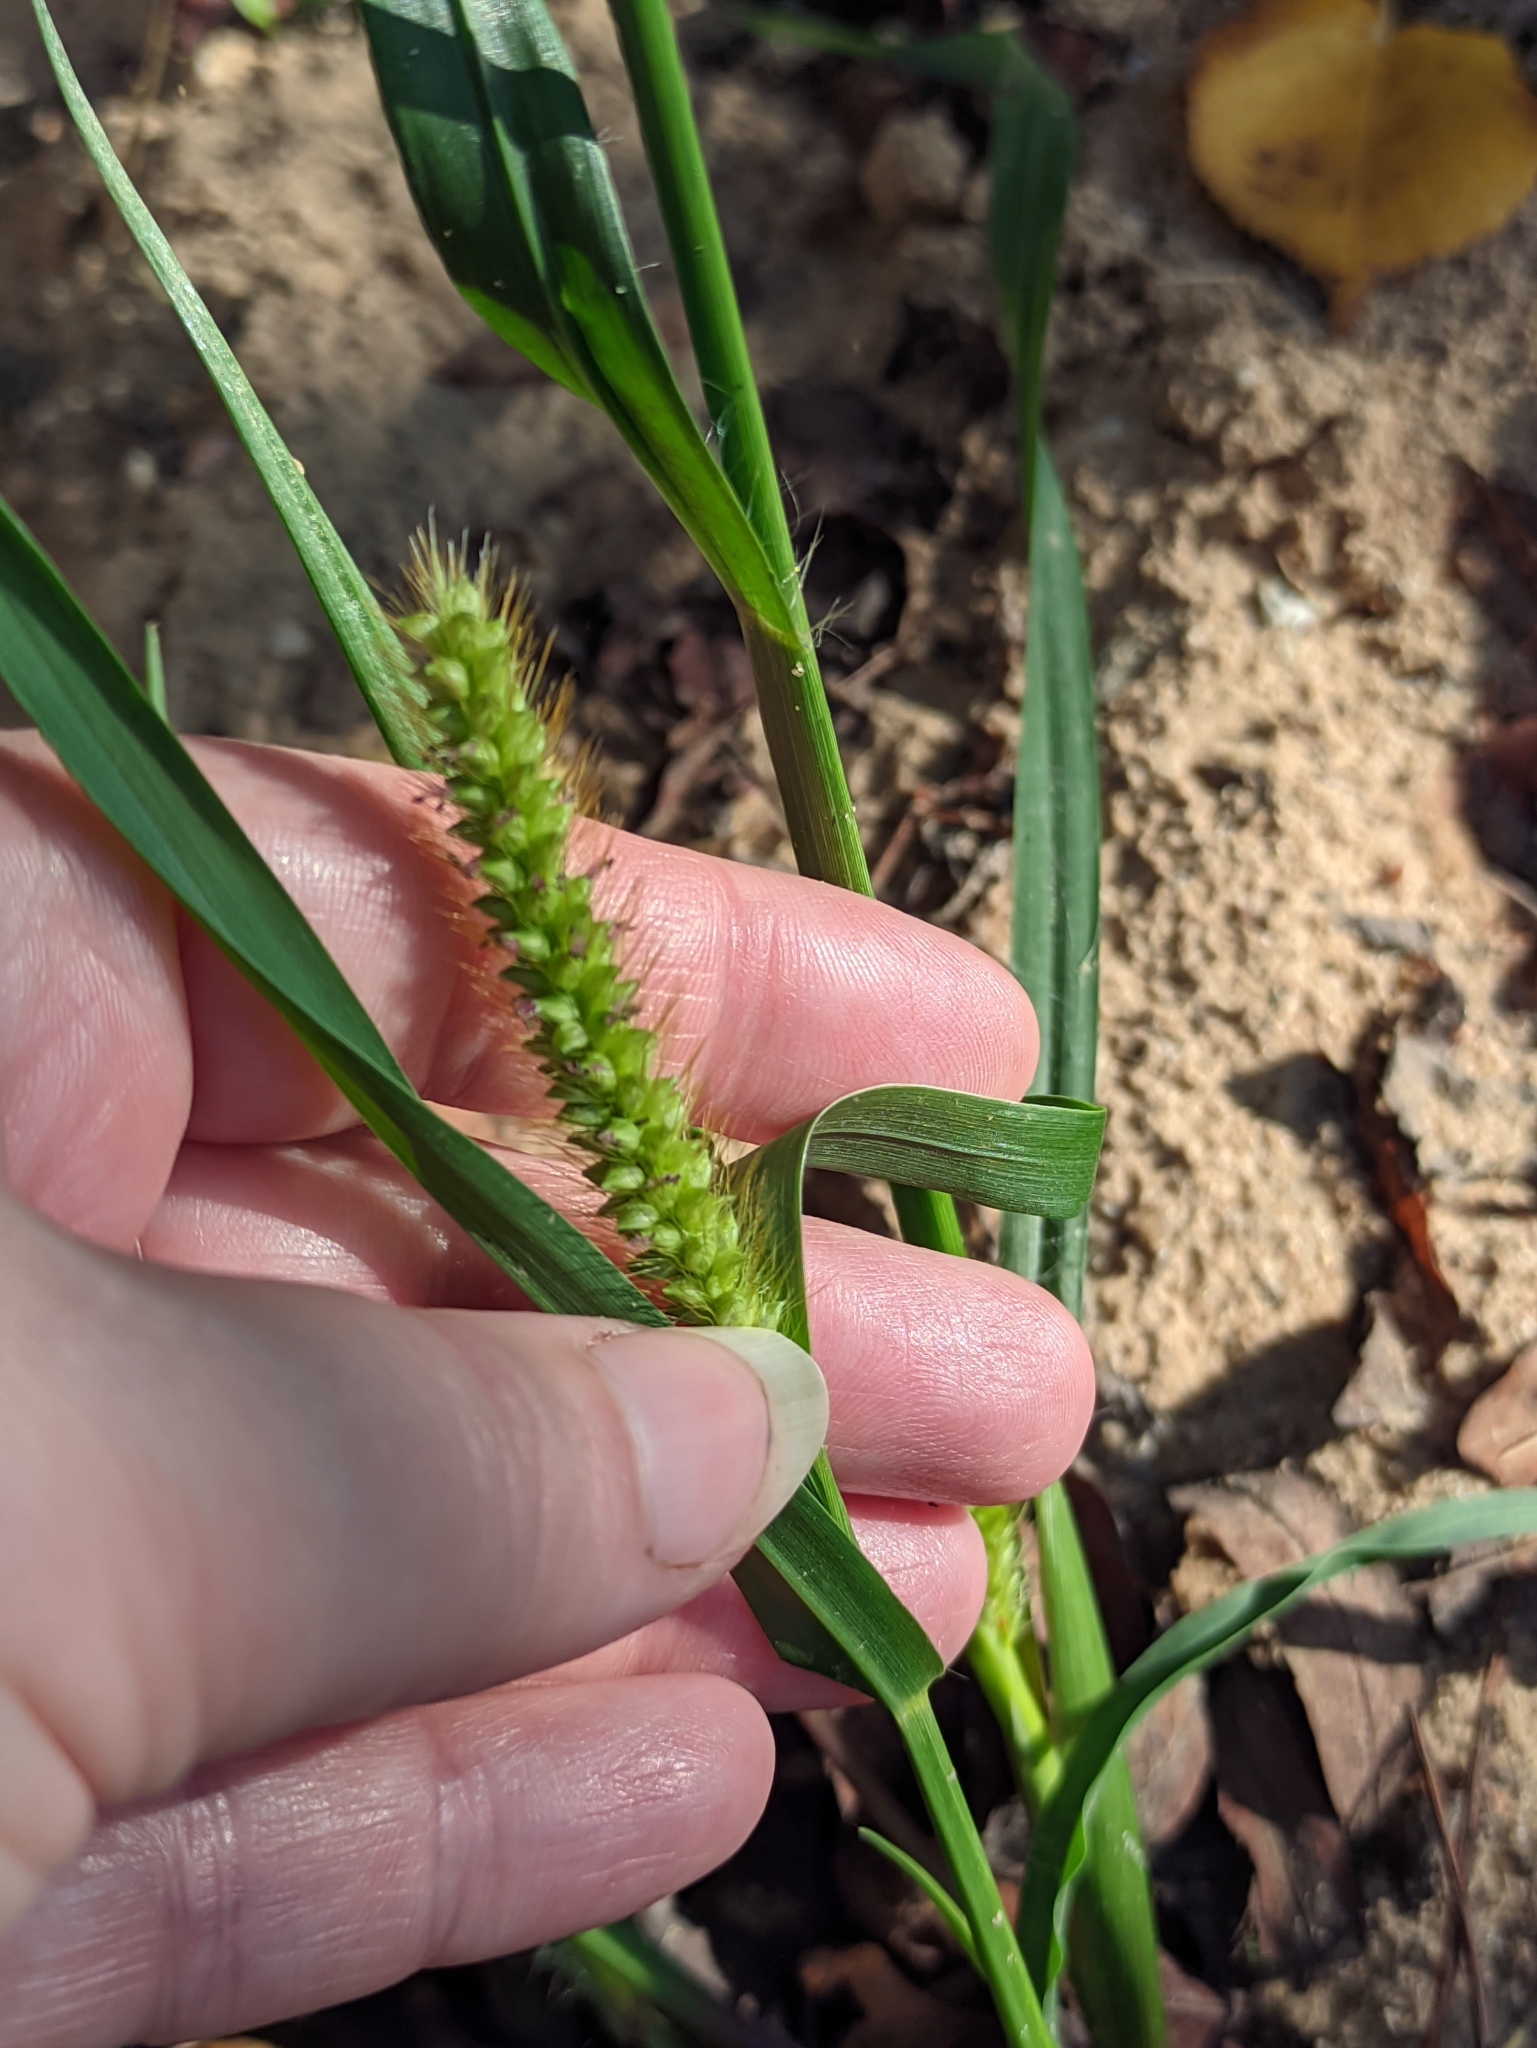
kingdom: Plantae
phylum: Tracheophyta
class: Liliopsida
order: Poales
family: Poaceae
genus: Setaria
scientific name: Setaria pumila
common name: Yellow bristle-grass
